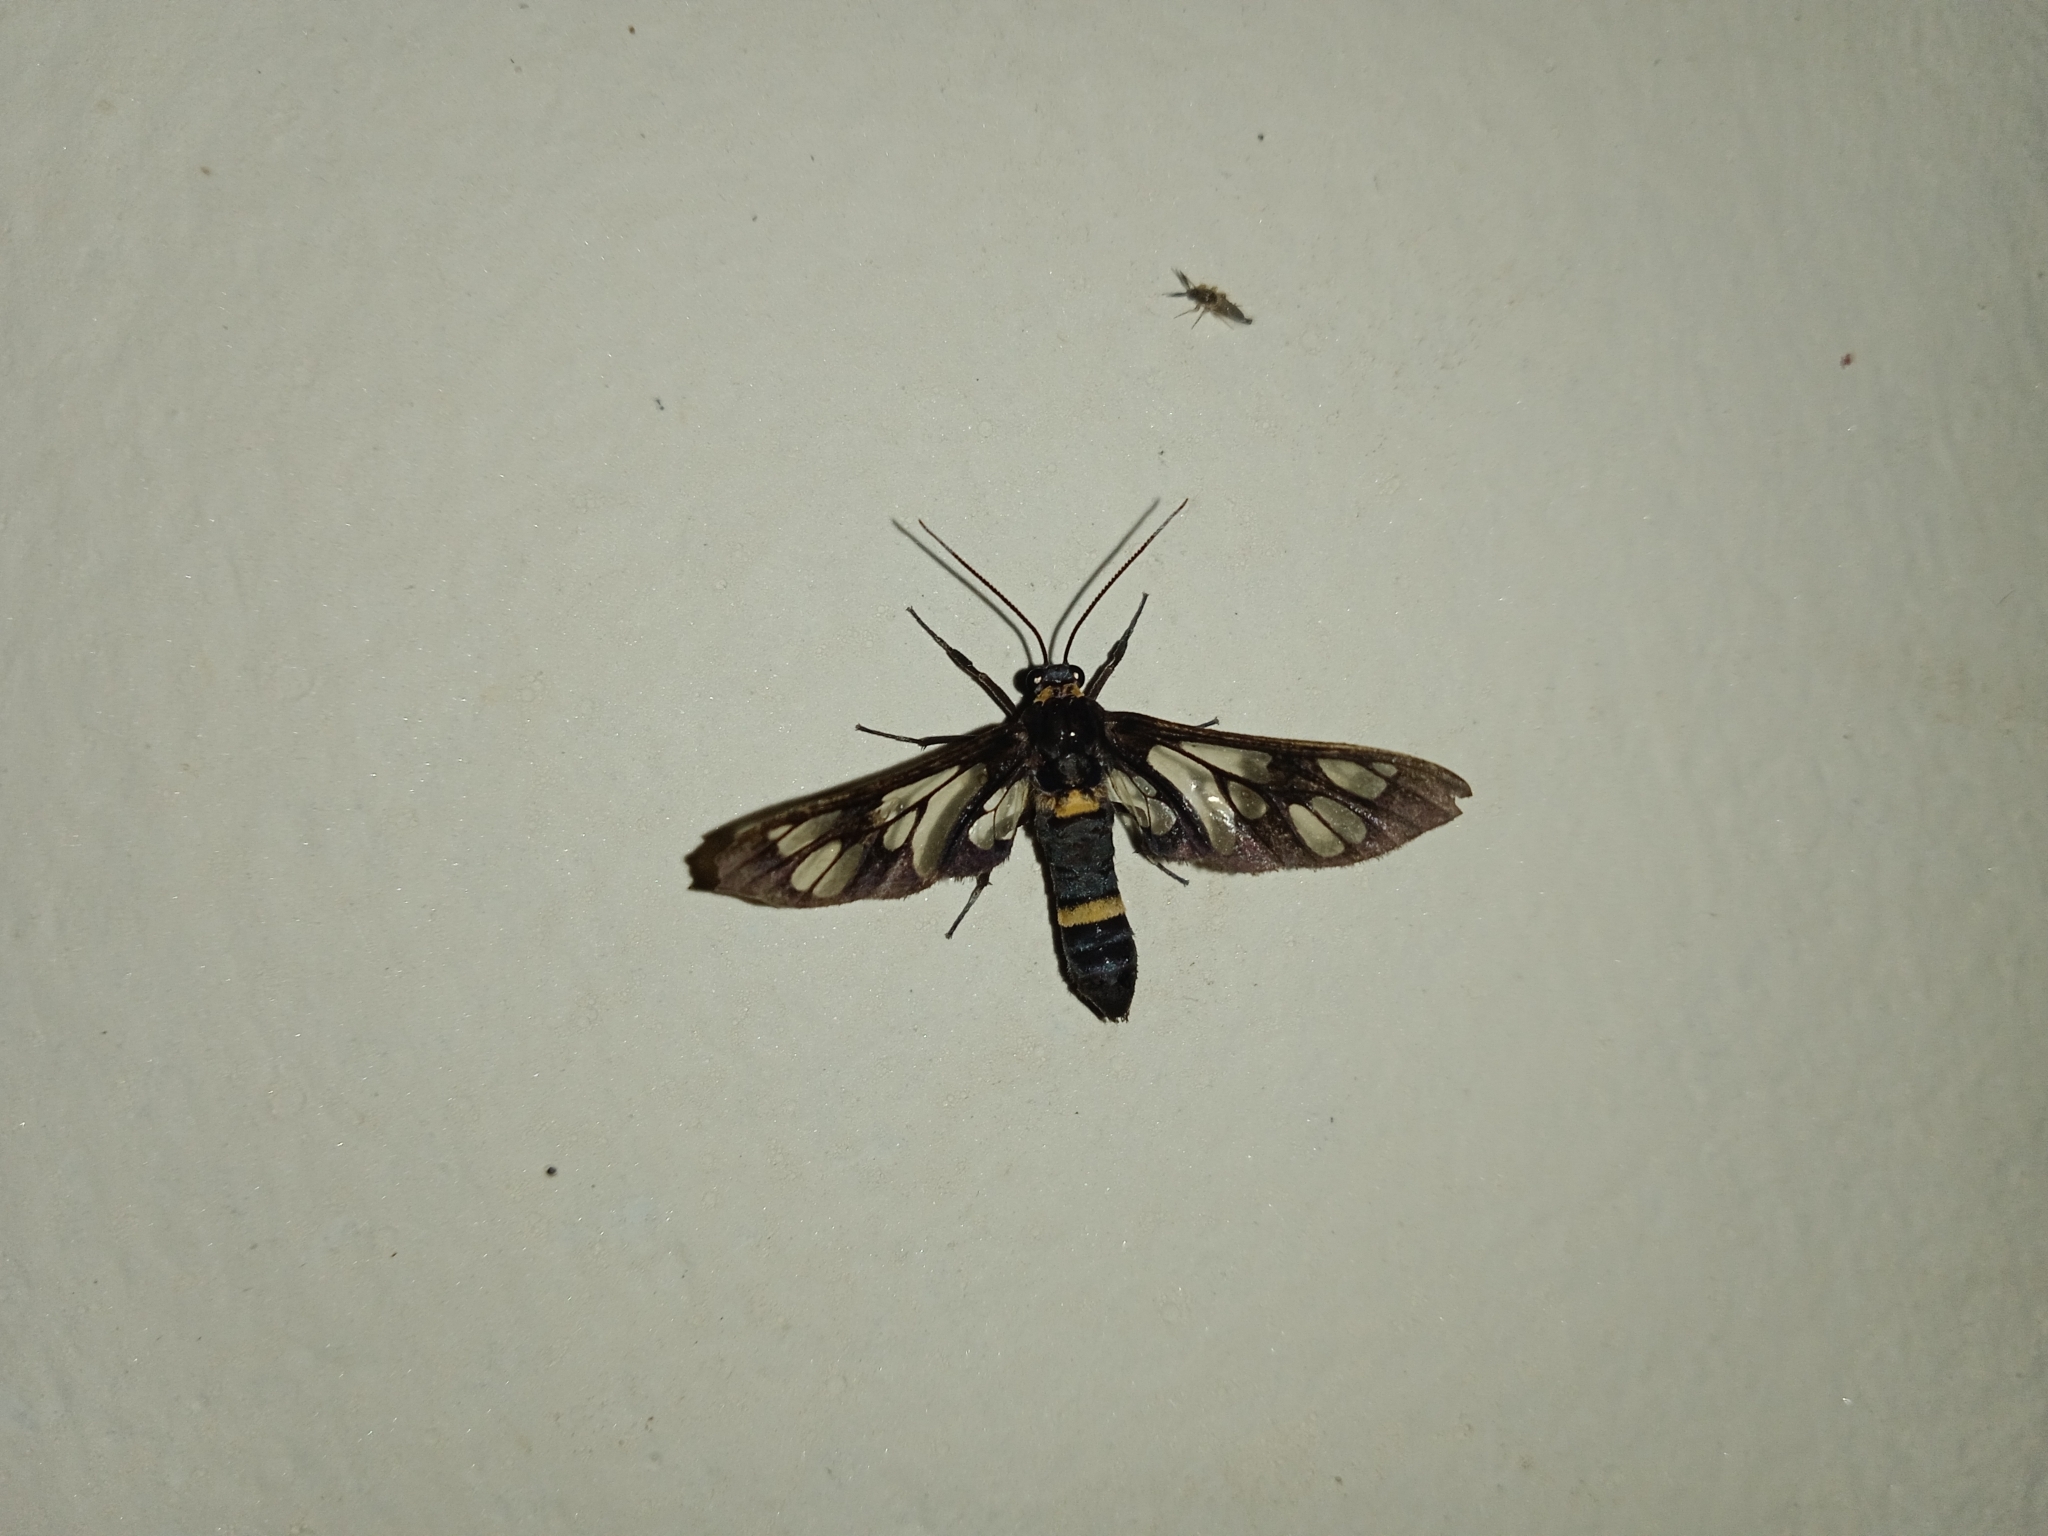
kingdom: Animalia
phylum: Arthropoda
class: Insecta
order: Lepidoptera
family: Erebidae
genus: Syntomoides
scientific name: Syntomoides imaon
